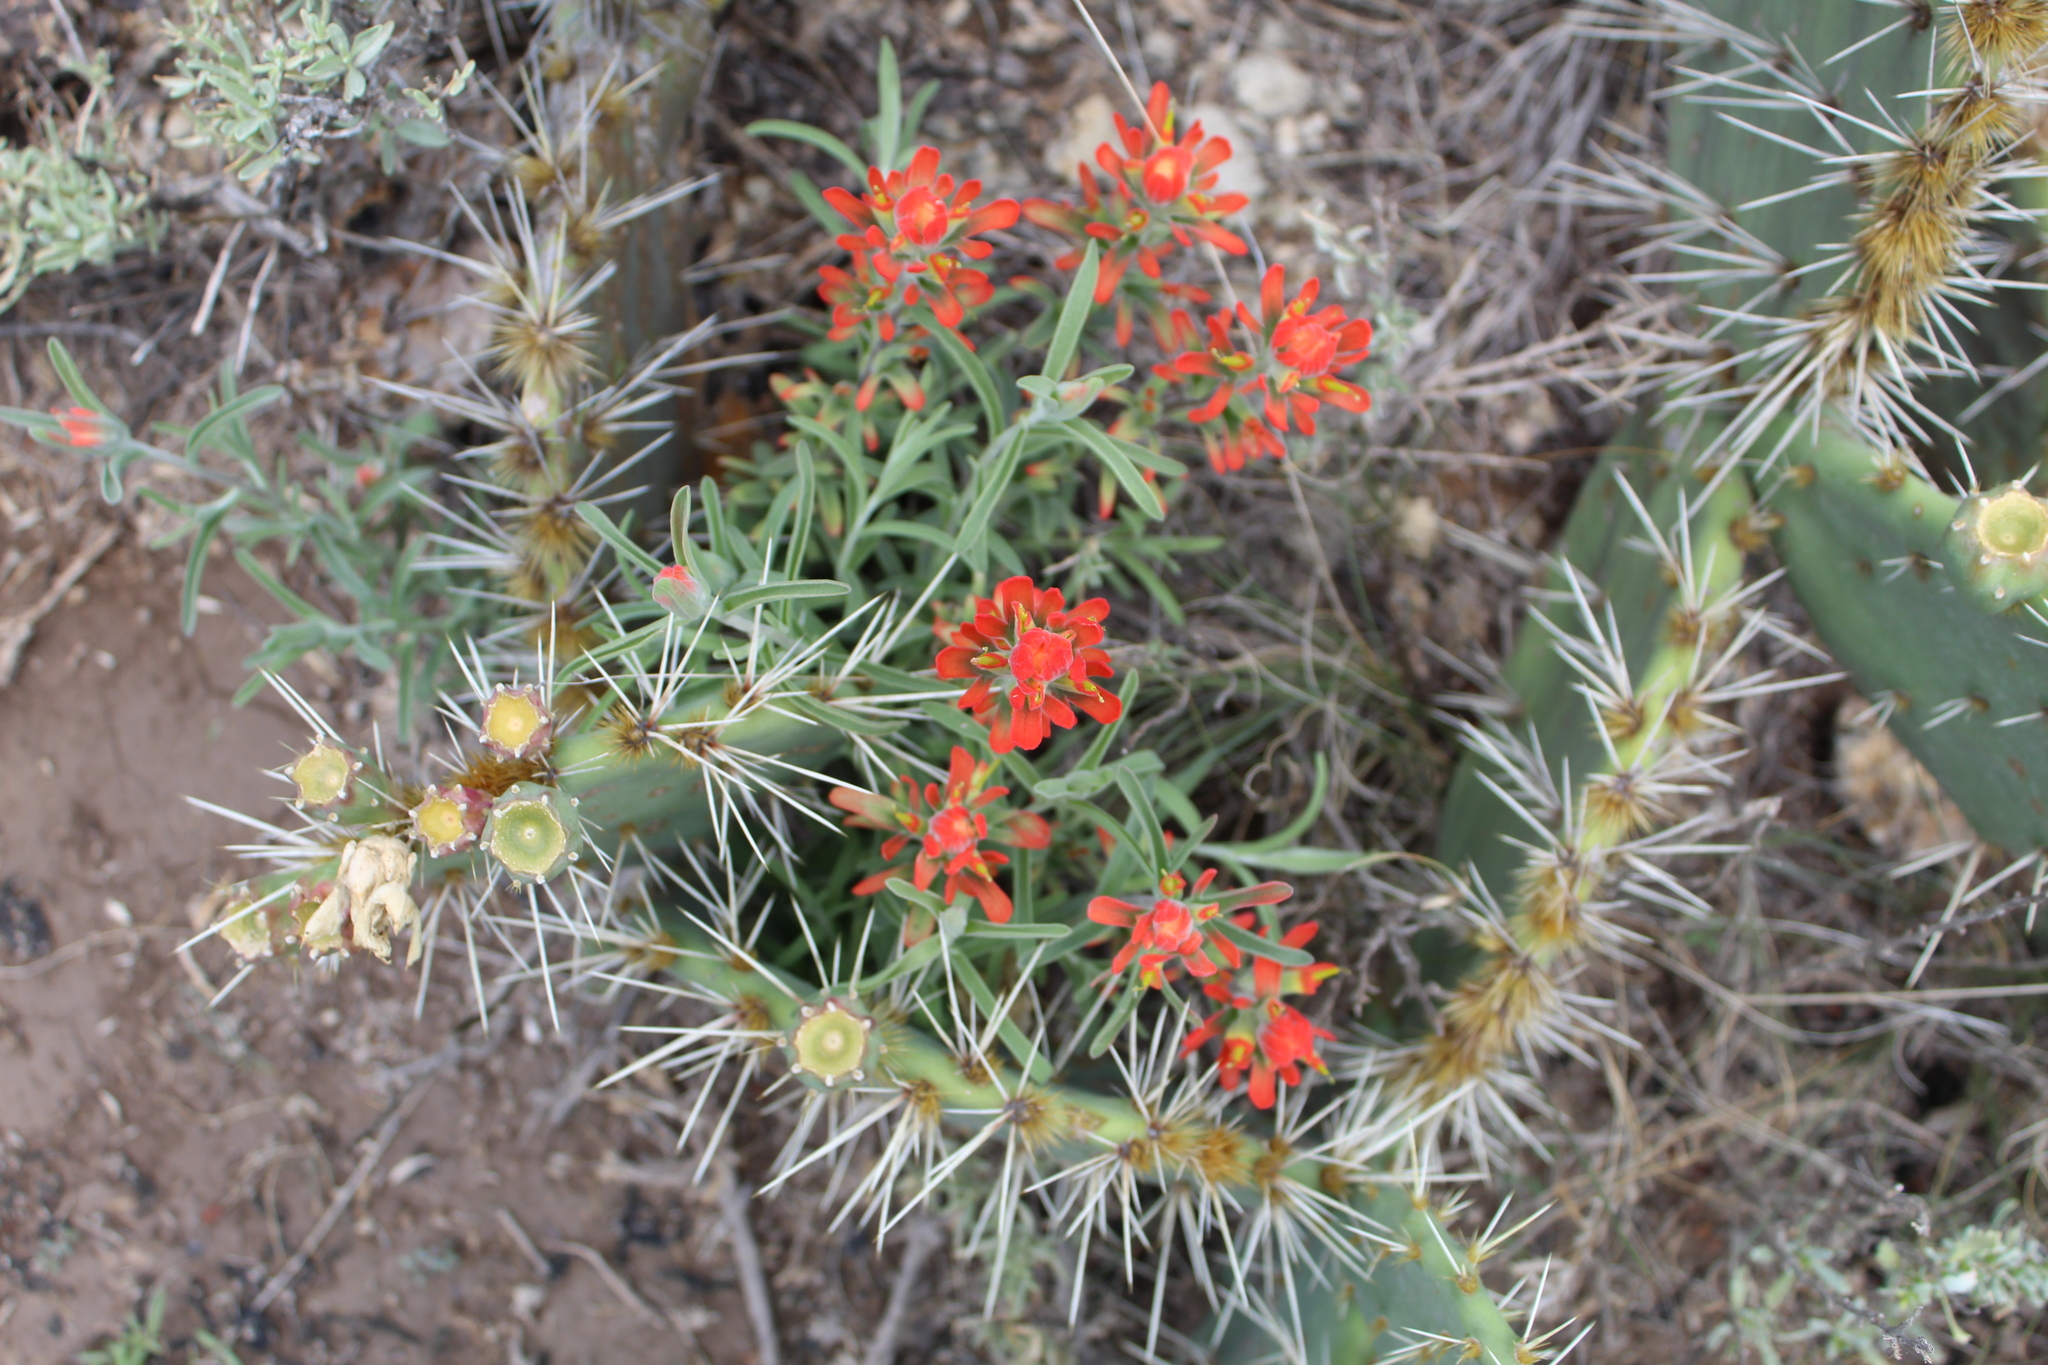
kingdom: Plantae
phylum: Tracheophyta
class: Magnoliopsida
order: Lamiales
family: Orobanchaceae
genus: Castilleja
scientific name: Castilleja lanata
